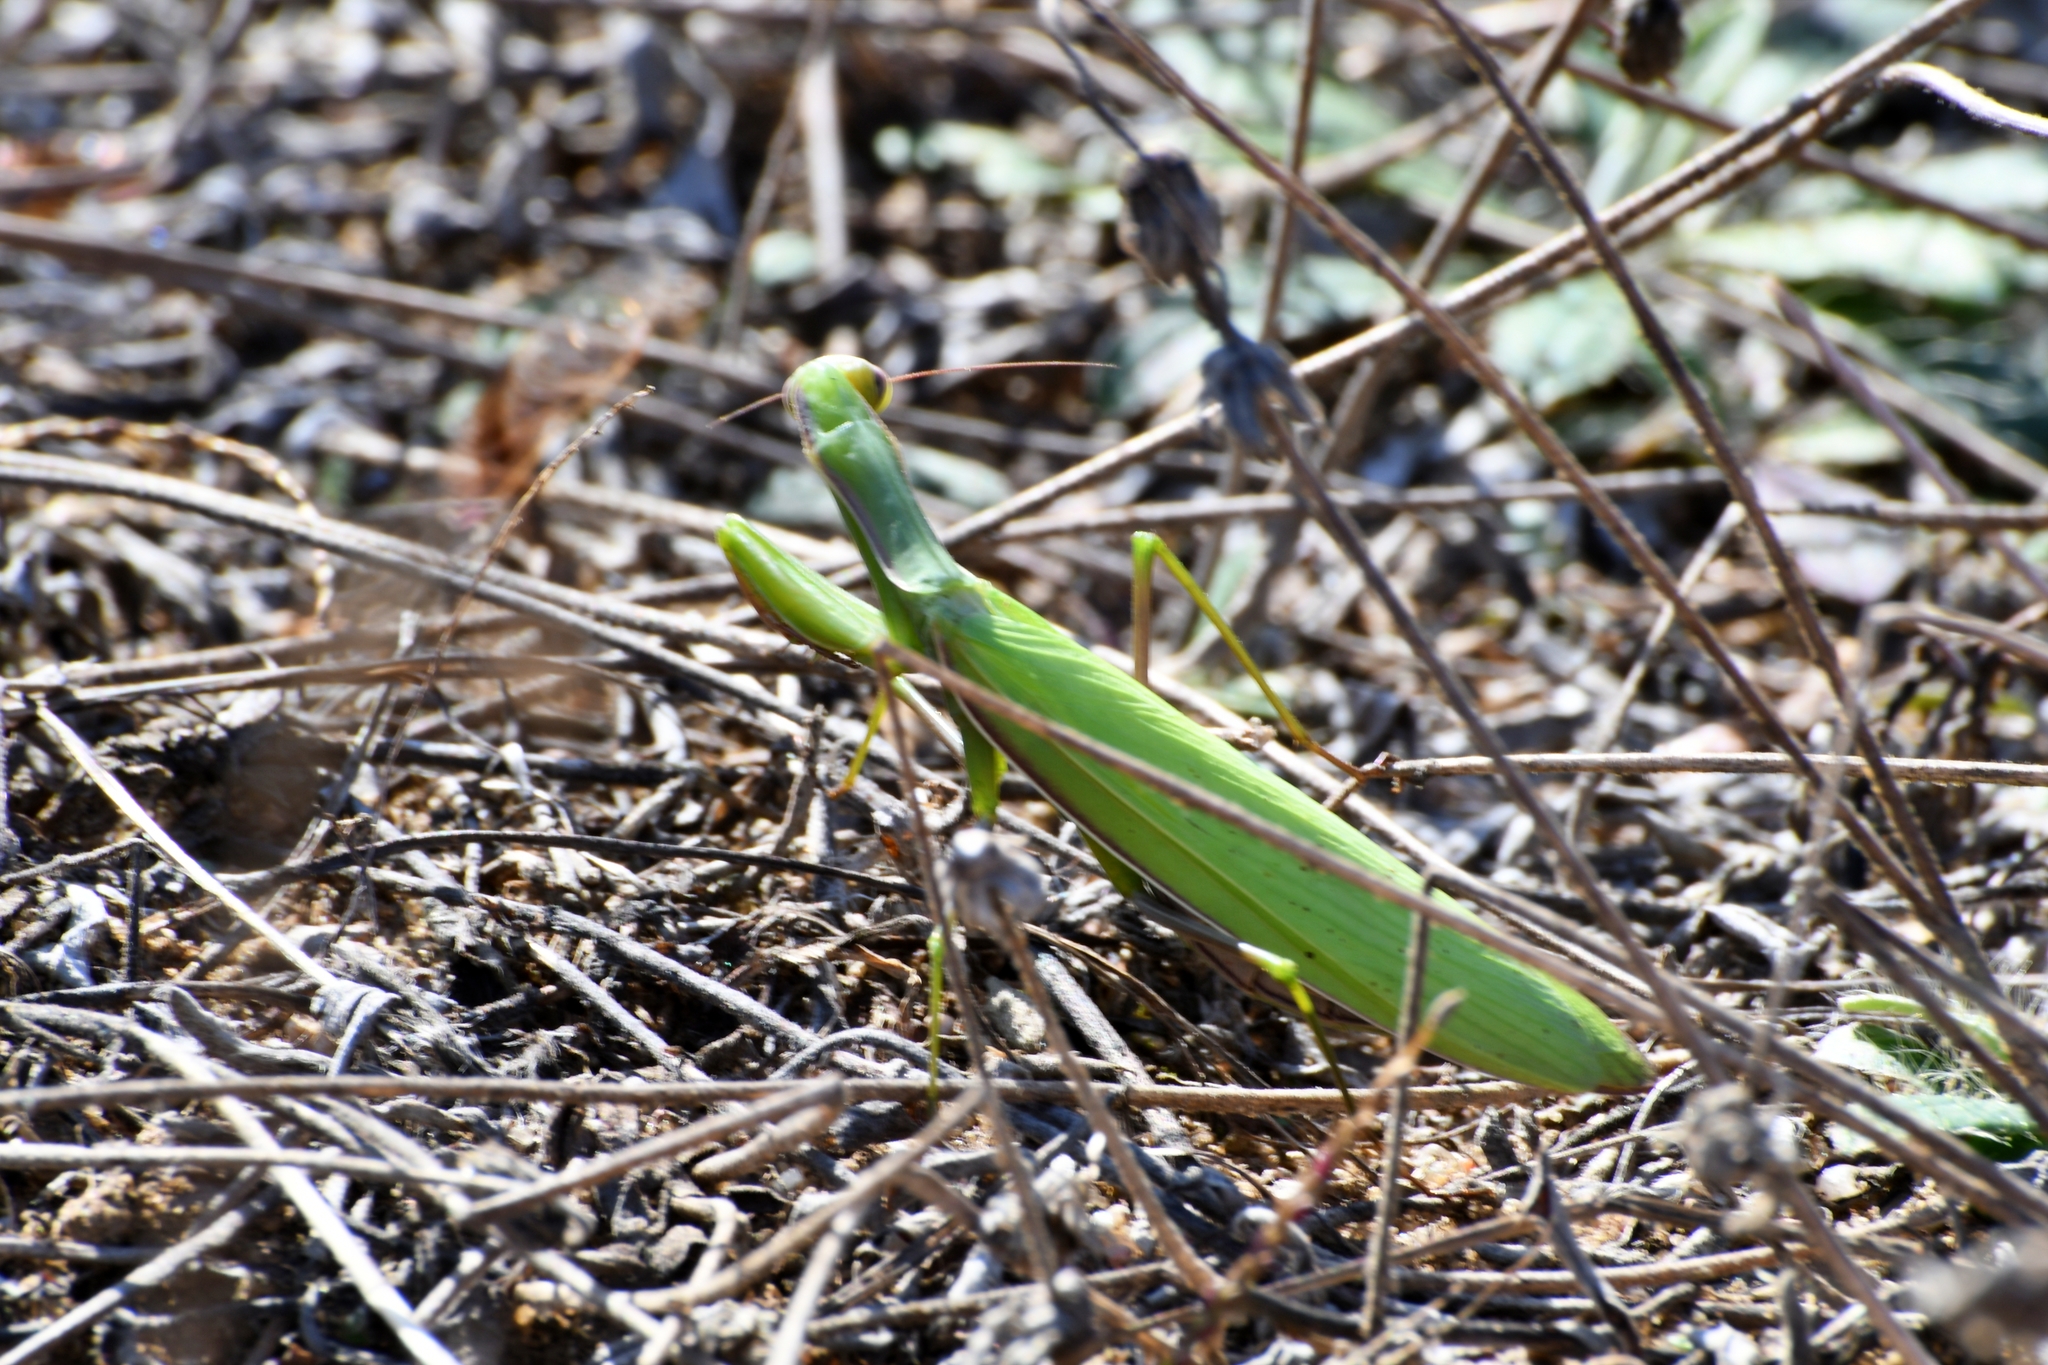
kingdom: Animalia
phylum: Arthropoda
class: Insecta
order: Mantodea
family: Mantidae
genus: Mantis
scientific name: Mantis religiosa
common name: Praying mantis
